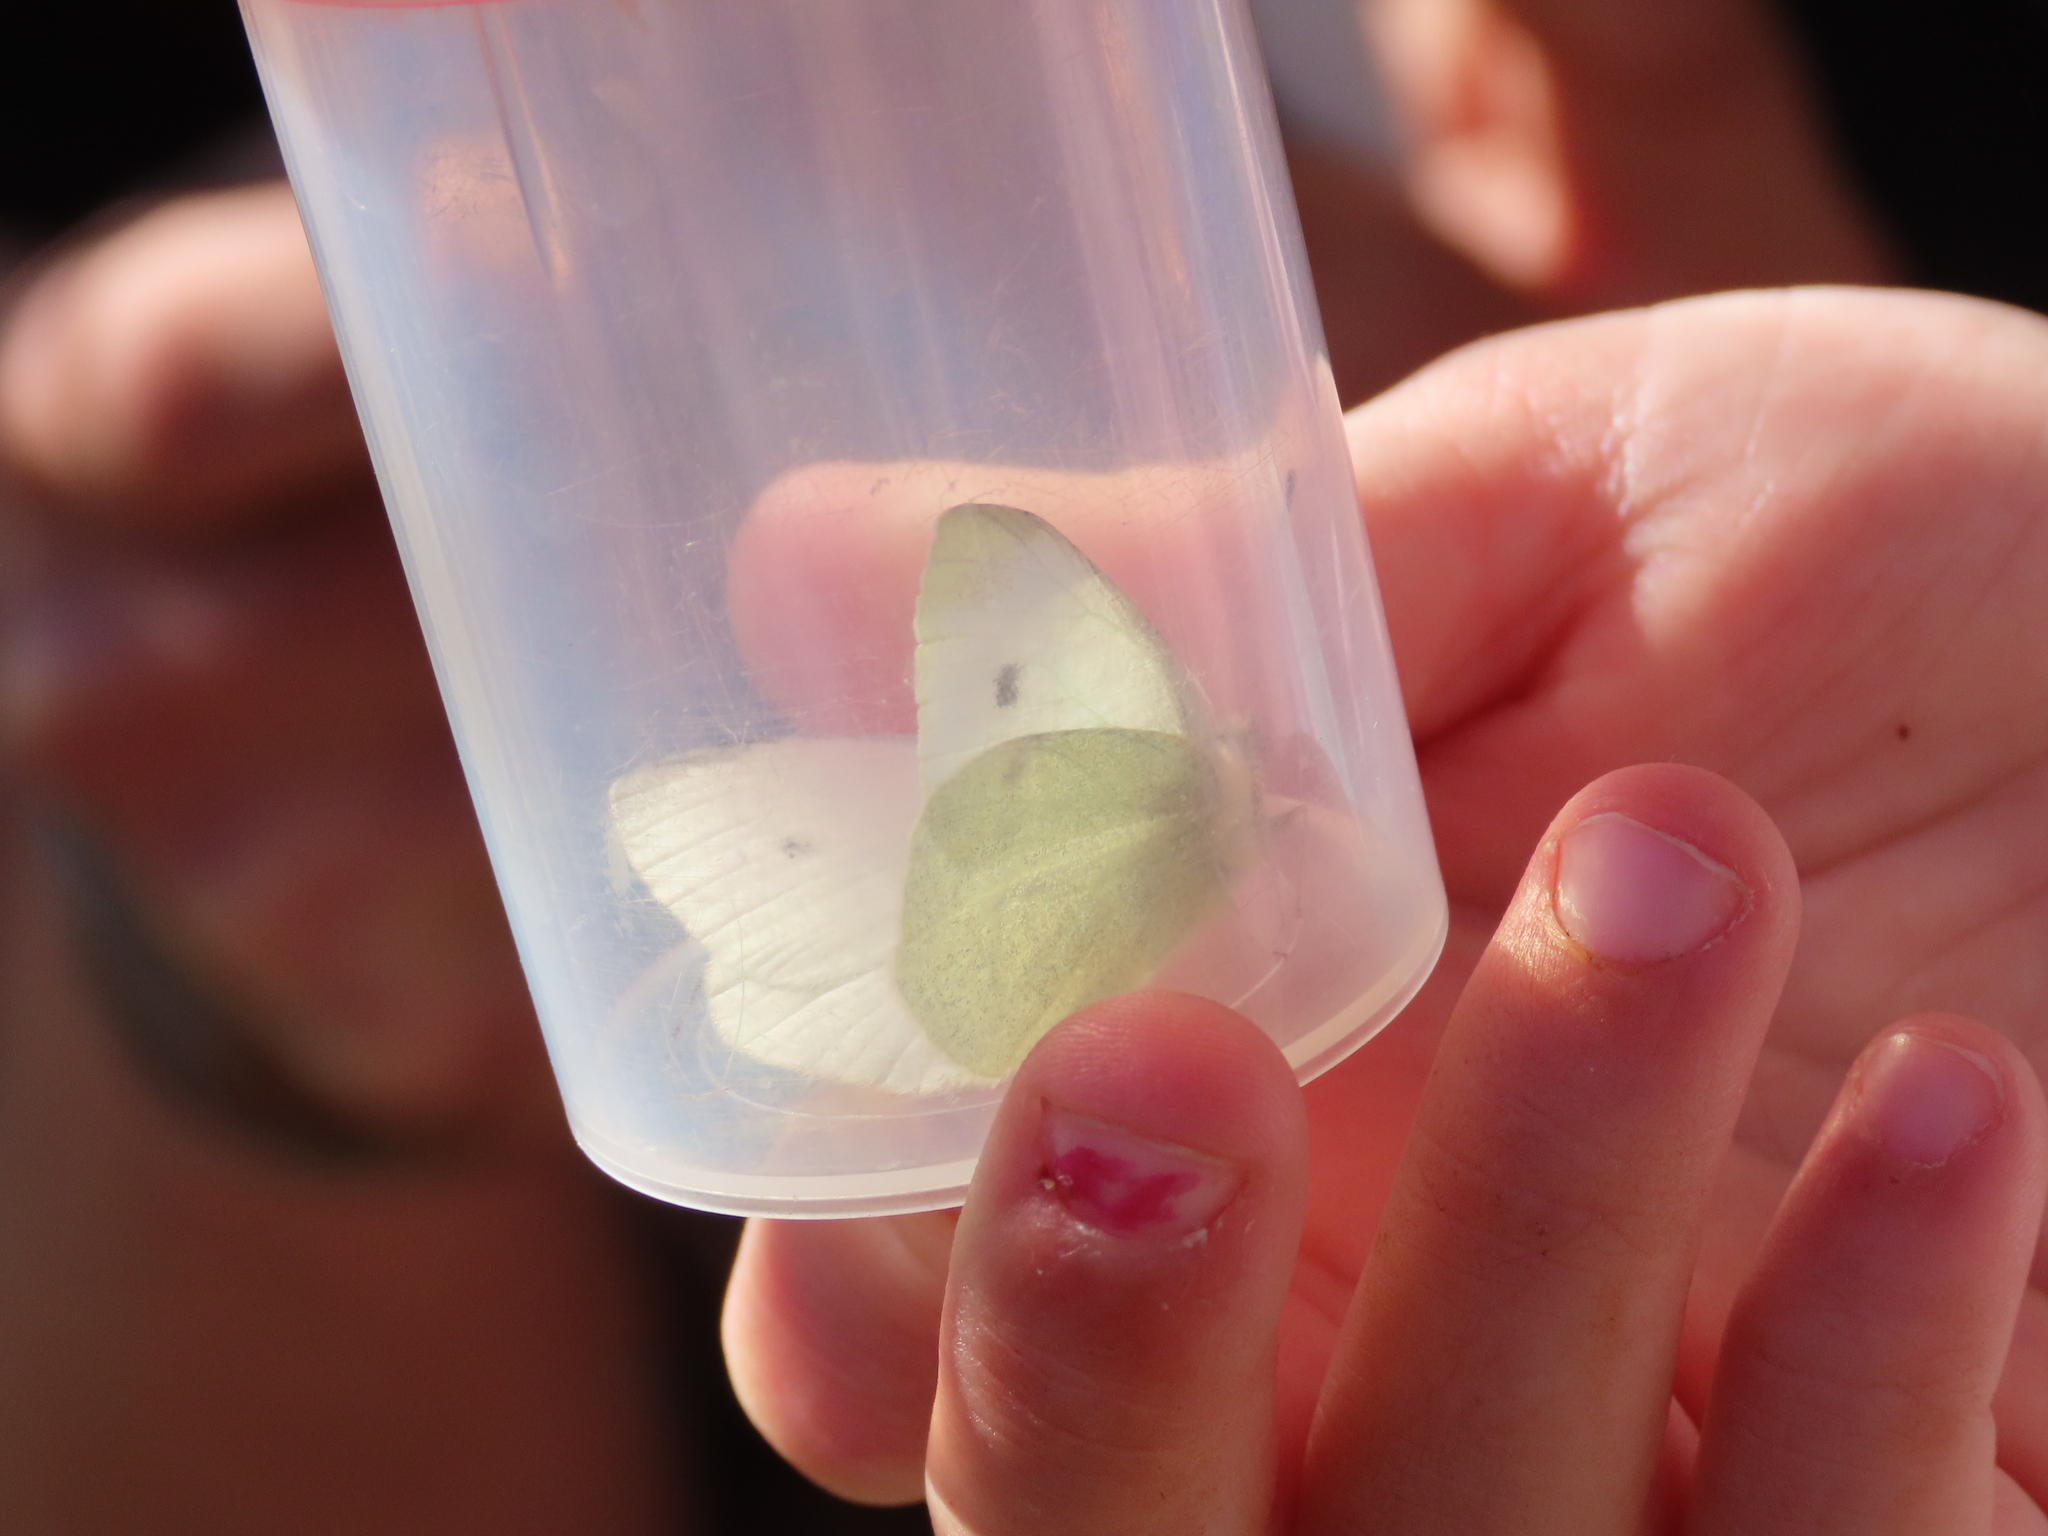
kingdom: Animalia
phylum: Arthropoda
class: Insecta
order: Lepidoptera
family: Pieridae
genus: Pieris
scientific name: Pieris rapae
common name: Small white
